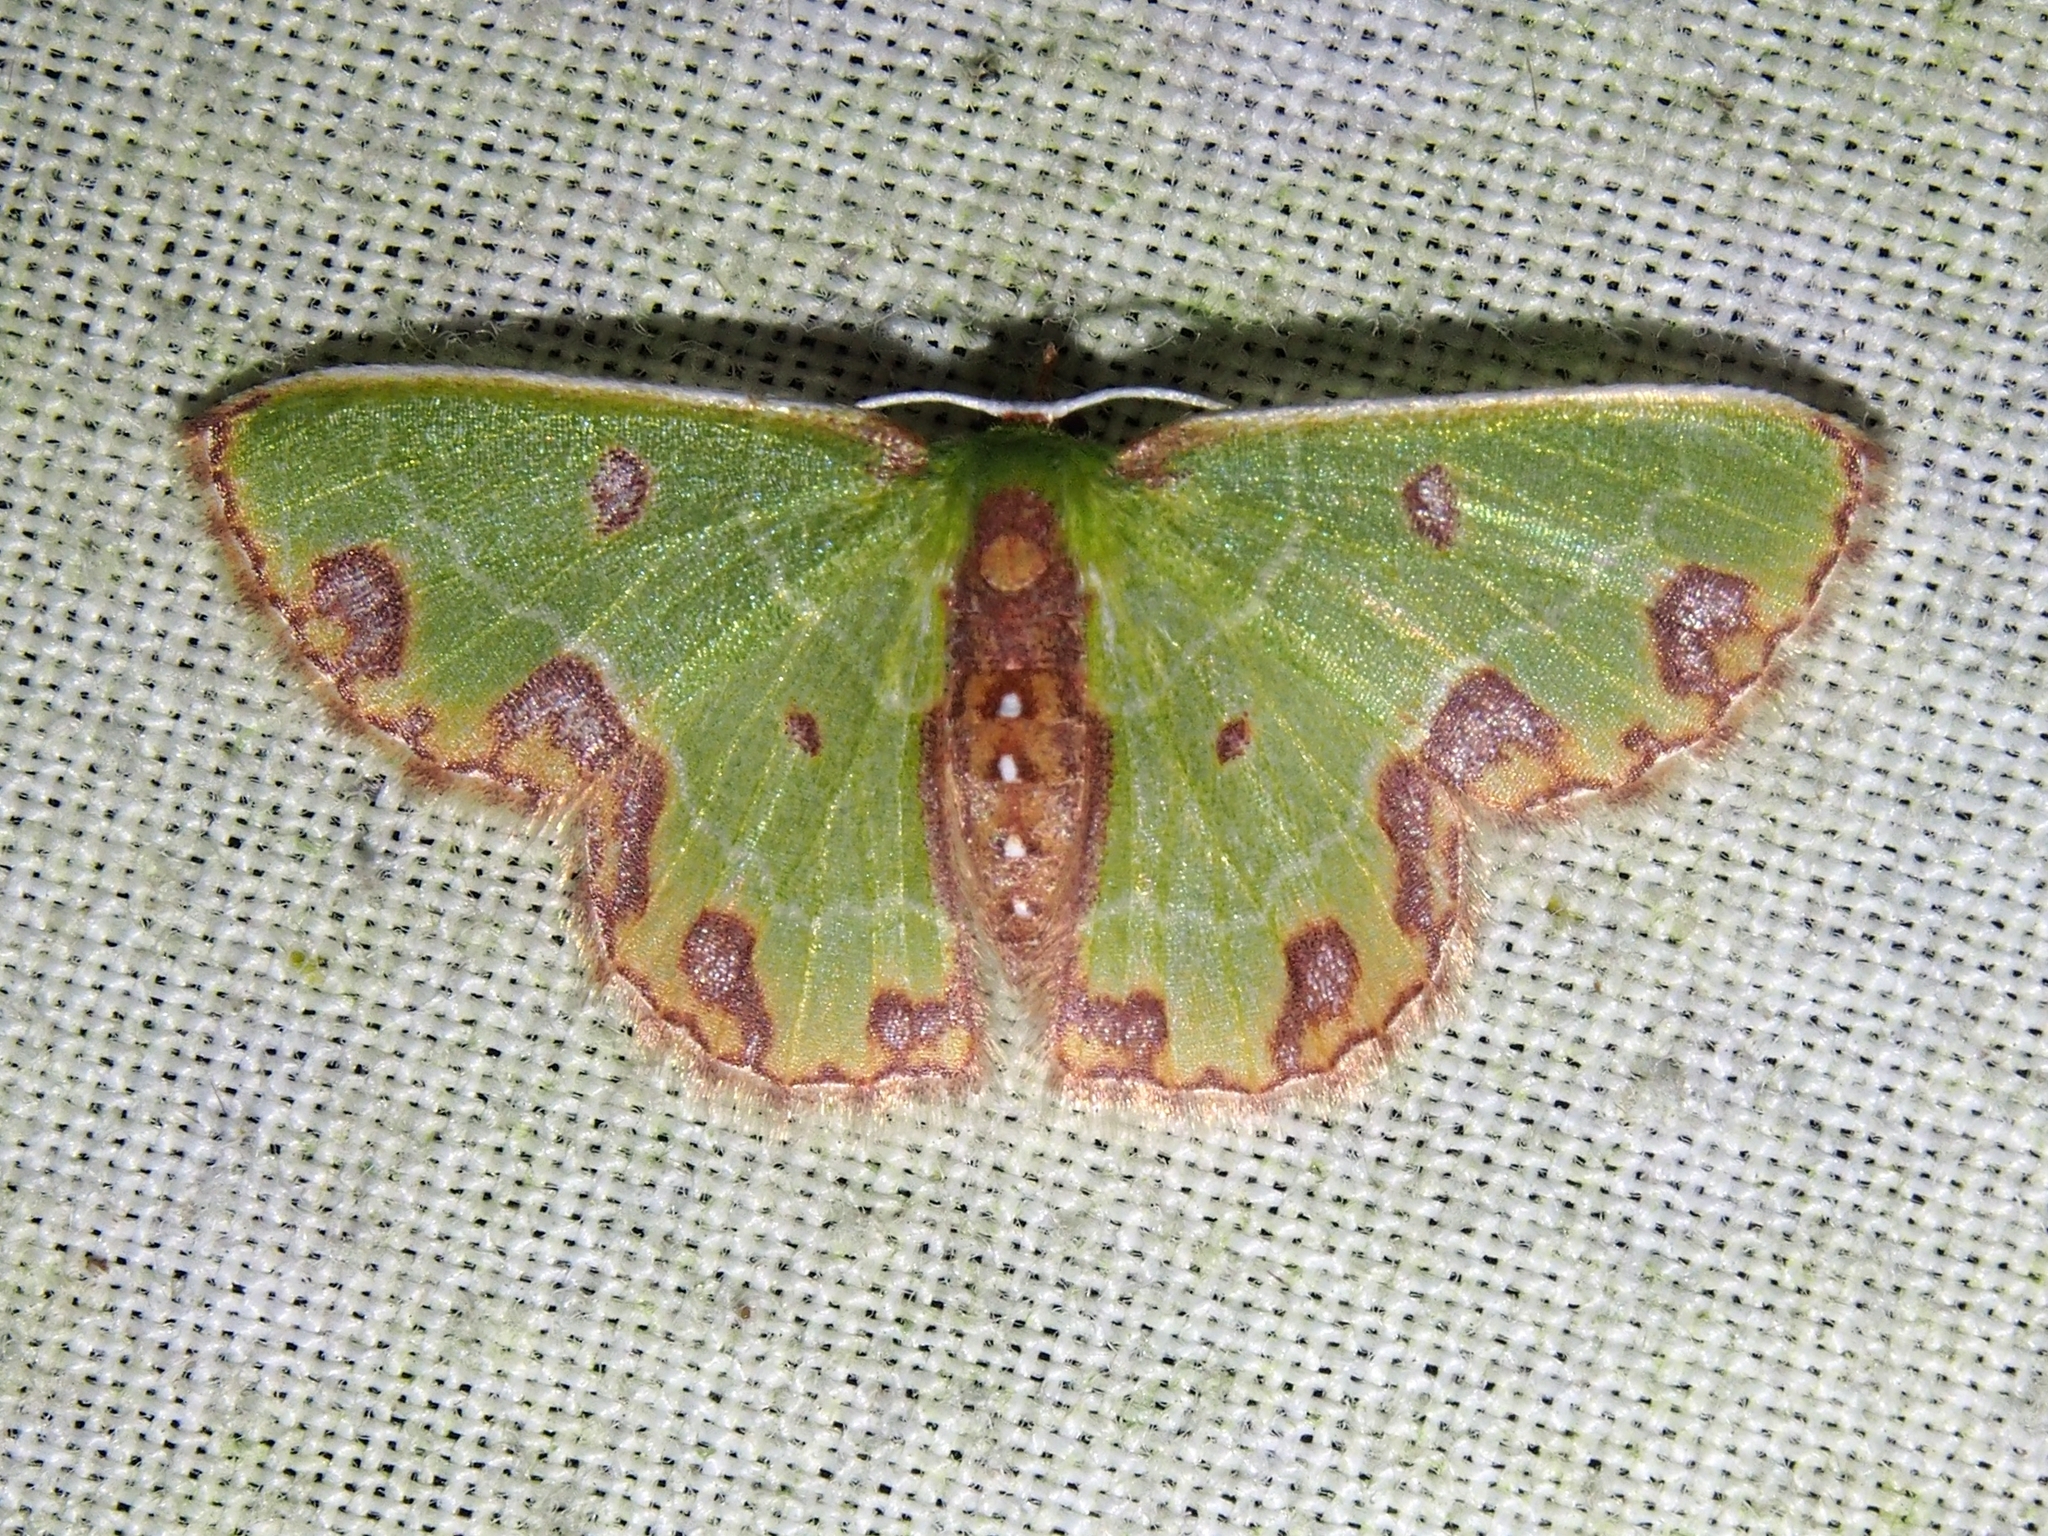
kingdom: Animalia
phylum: Arthropoda
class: Insecta
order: Lepidoptera
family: Geometridae
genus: Synchlora
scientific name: Synchlora gerularia
